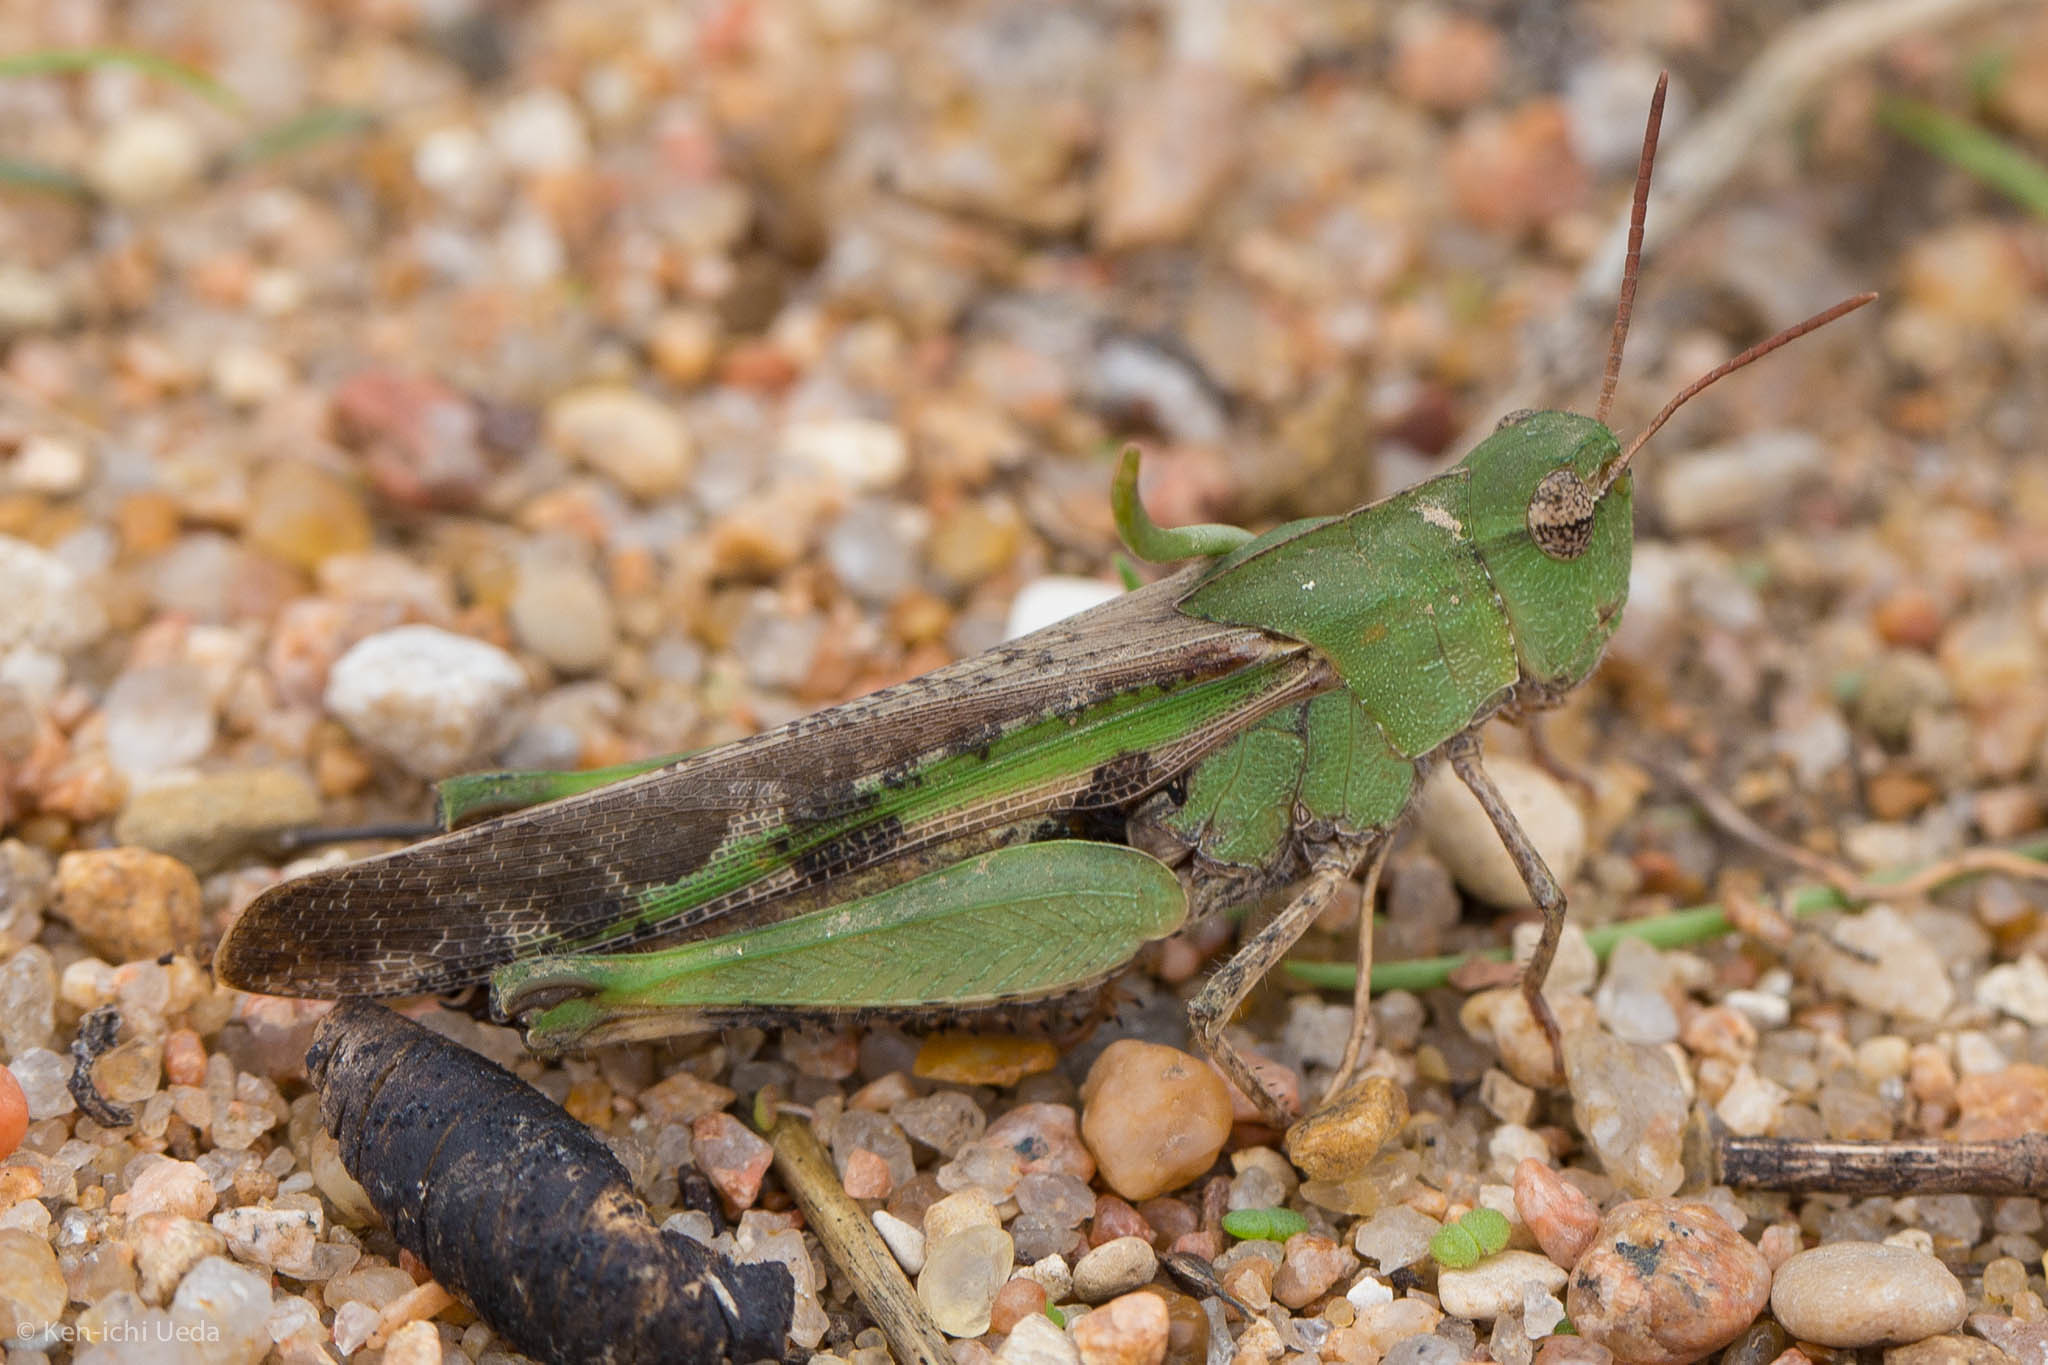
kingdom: Animalia
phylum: Arthropoda
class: Insecta
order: Orthoptera
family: Acrididae
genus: Chortophaga
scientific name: Chortophaga viridifasciata
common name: Green-striped grasshopper
